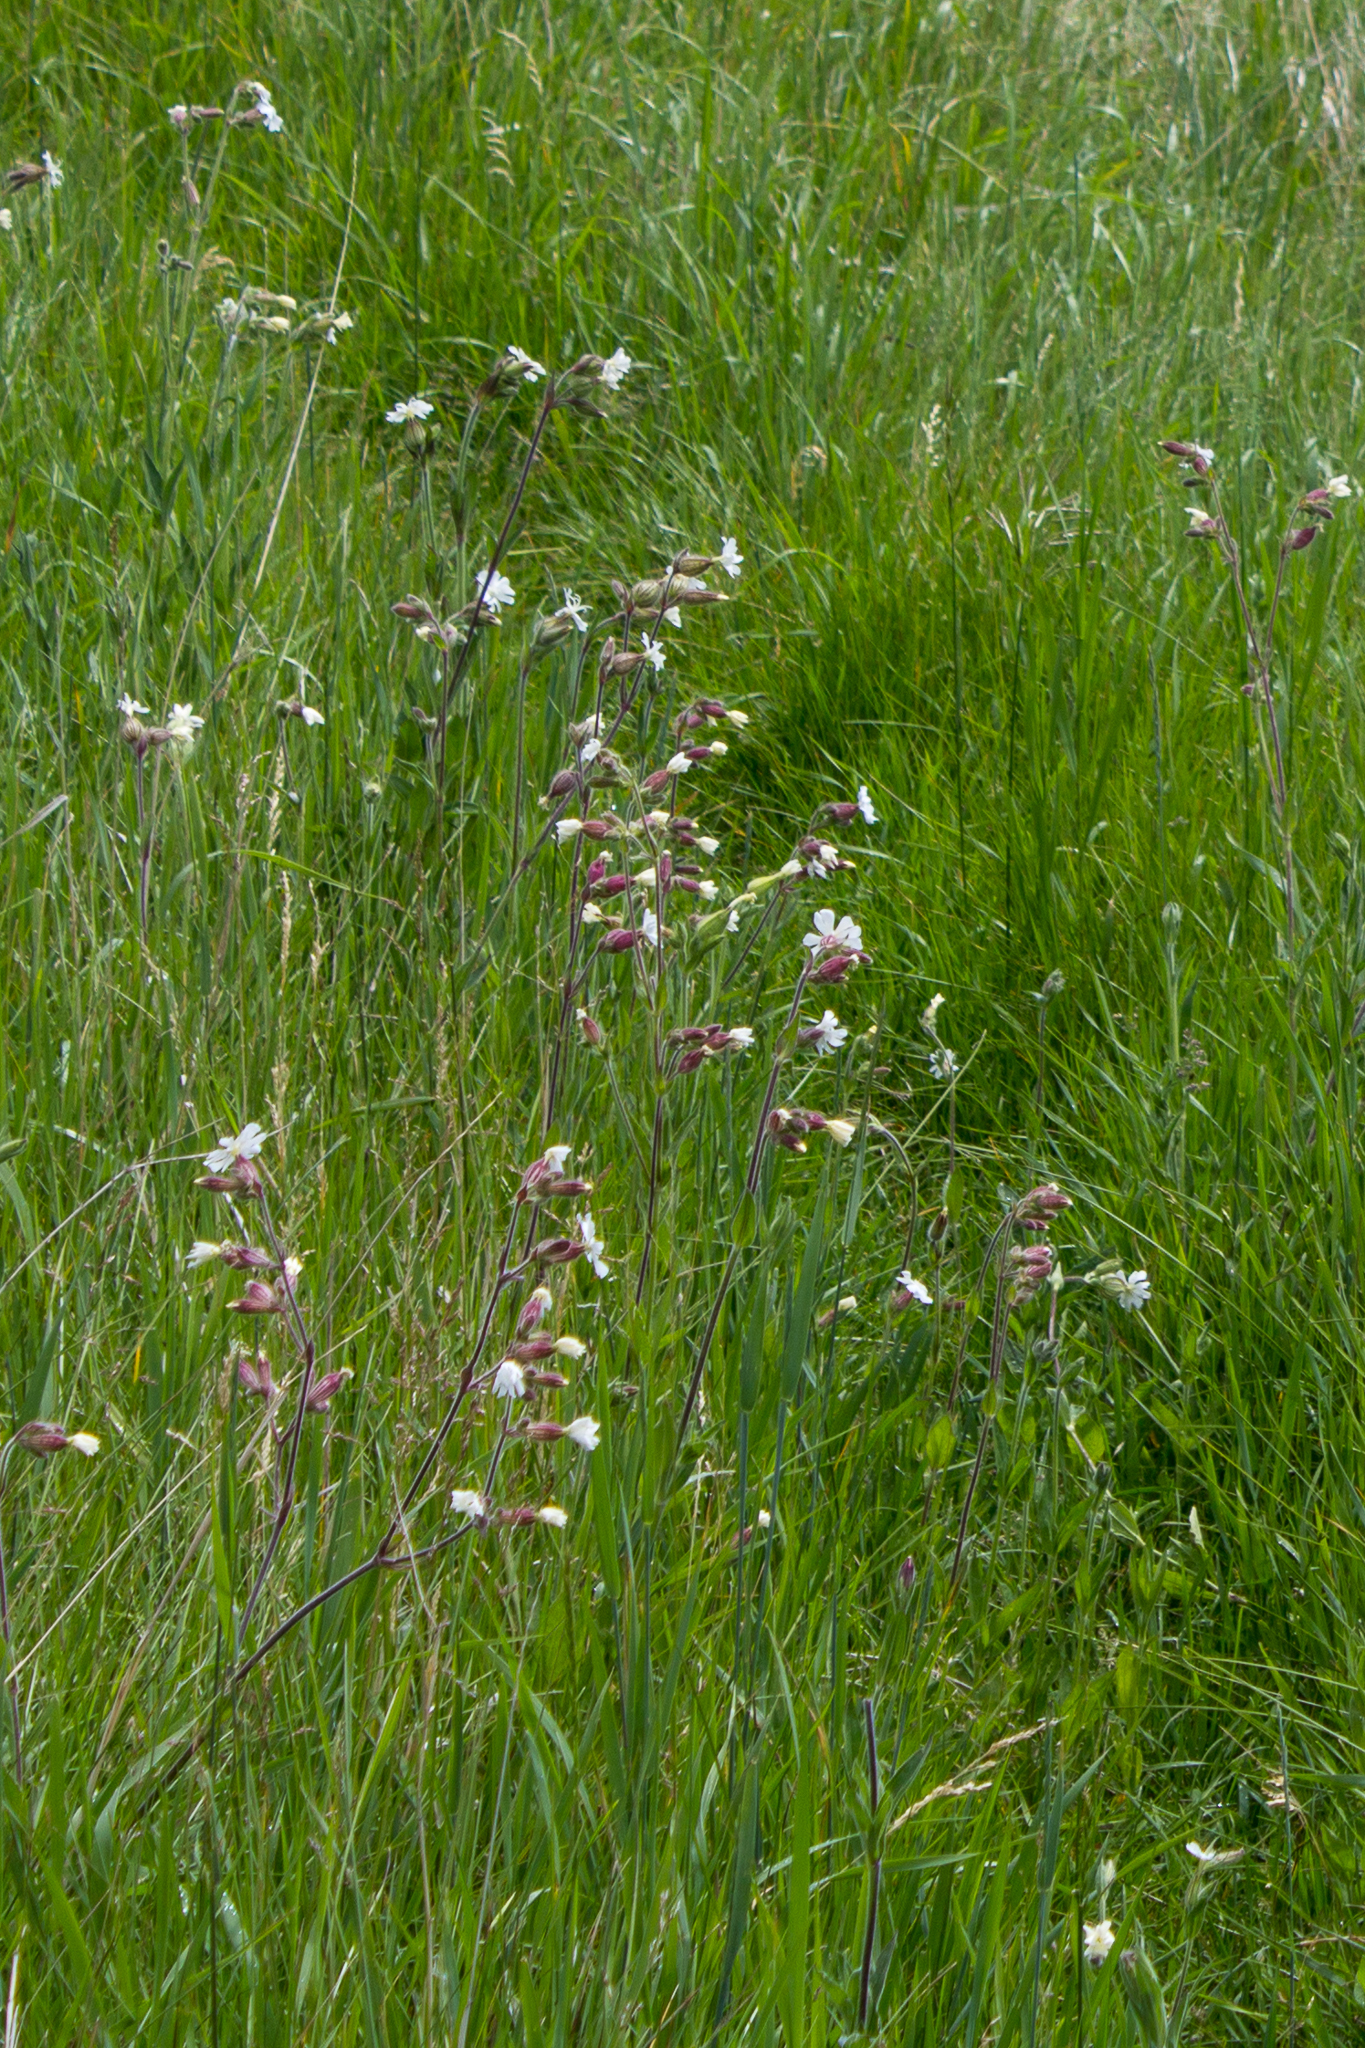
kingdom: Plantae
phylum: Tracheophyta
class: Magnoliopsida
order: Caryophyllales
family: Caryophyllaceae
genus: Silene
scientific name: Silene latifolia
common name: White campion
